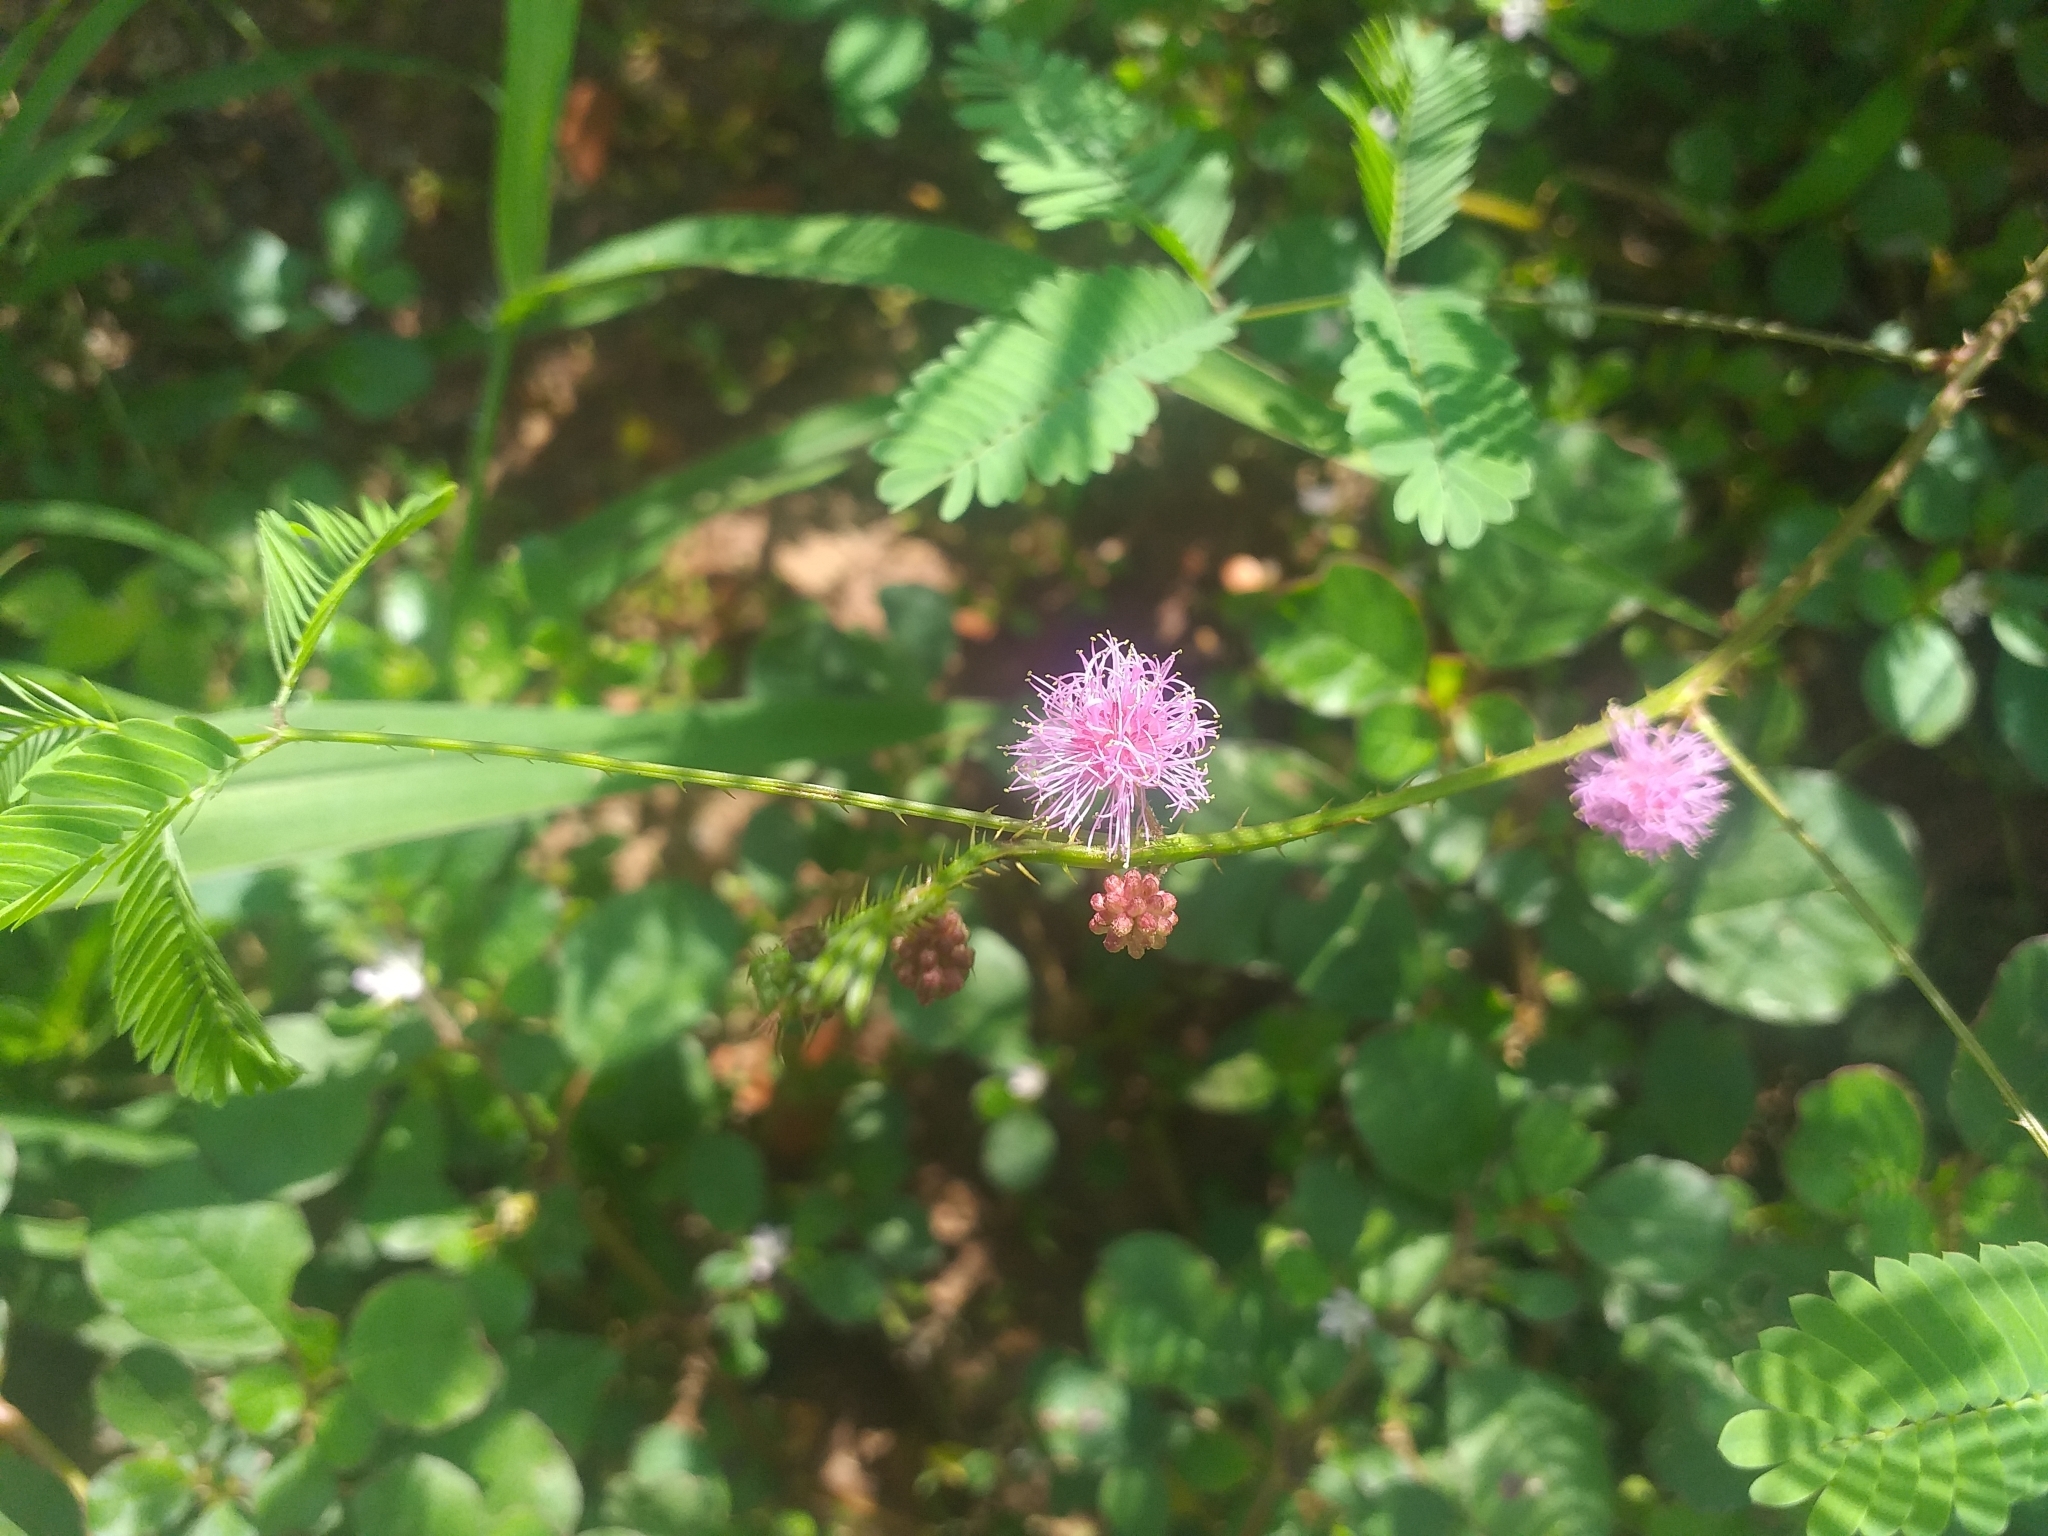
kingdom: Plantae
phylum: Tracheophyta
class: Magnoliopsida
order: Fabales
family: Fabaceae
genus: Mimosa
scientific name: Mimosa candollei
